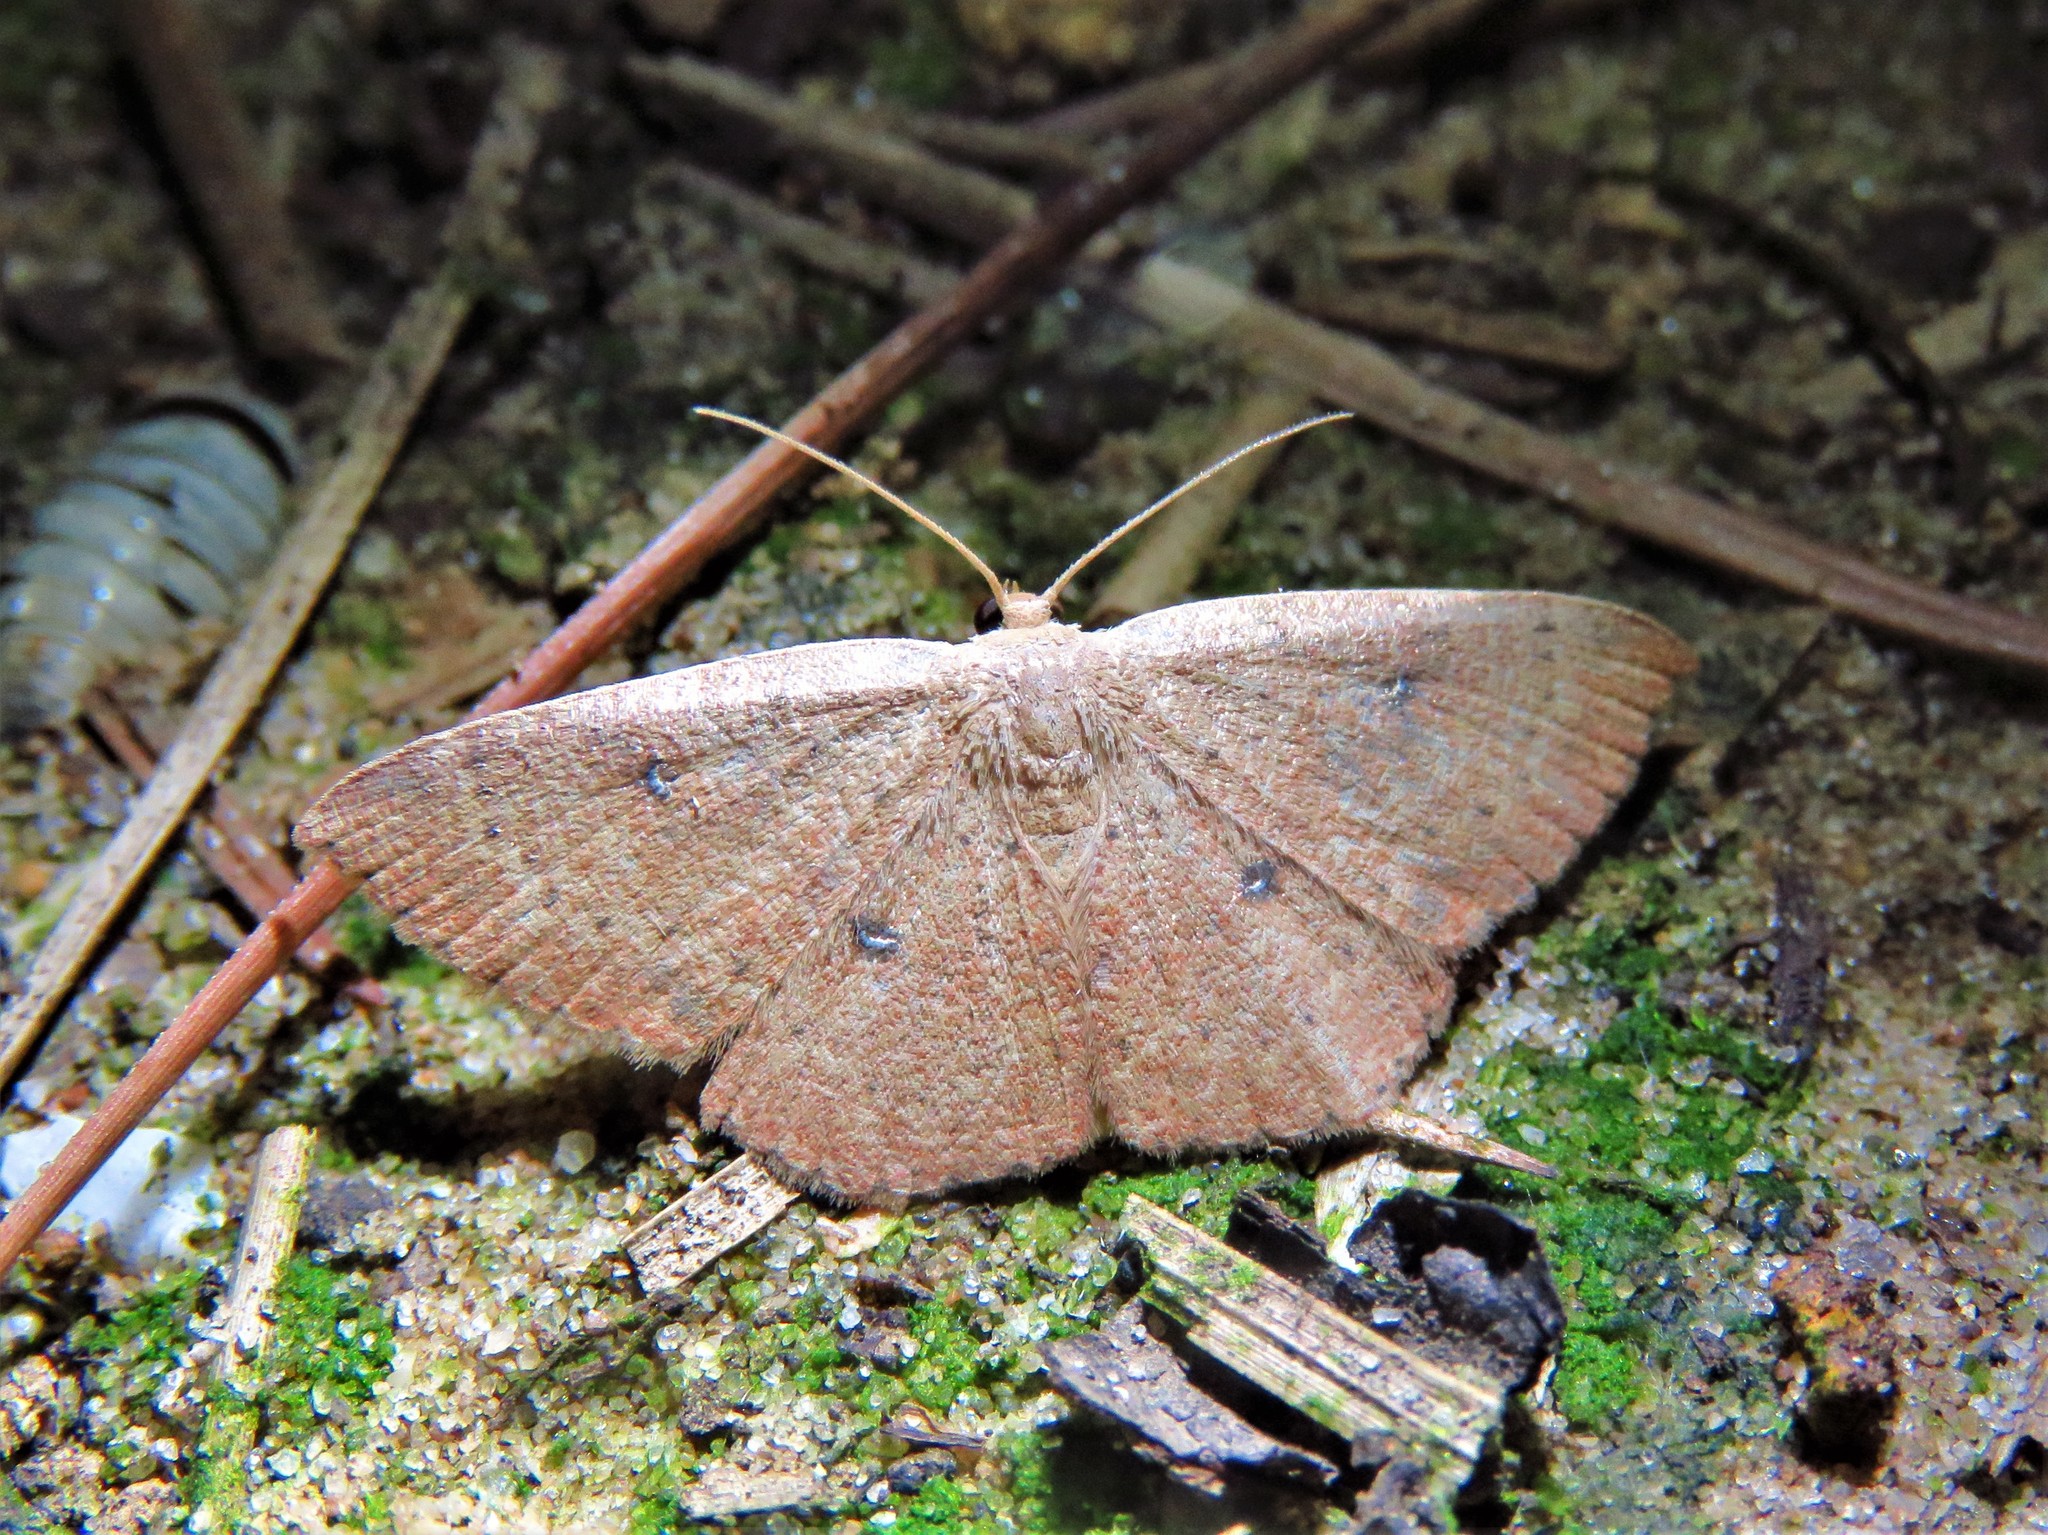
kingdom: Animalia
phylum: Arthropoda
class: Insecta
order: Lepidoptera
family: Geometridae
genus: Cyclophora
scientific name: Cyclophora packardi
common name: Packard's wave
